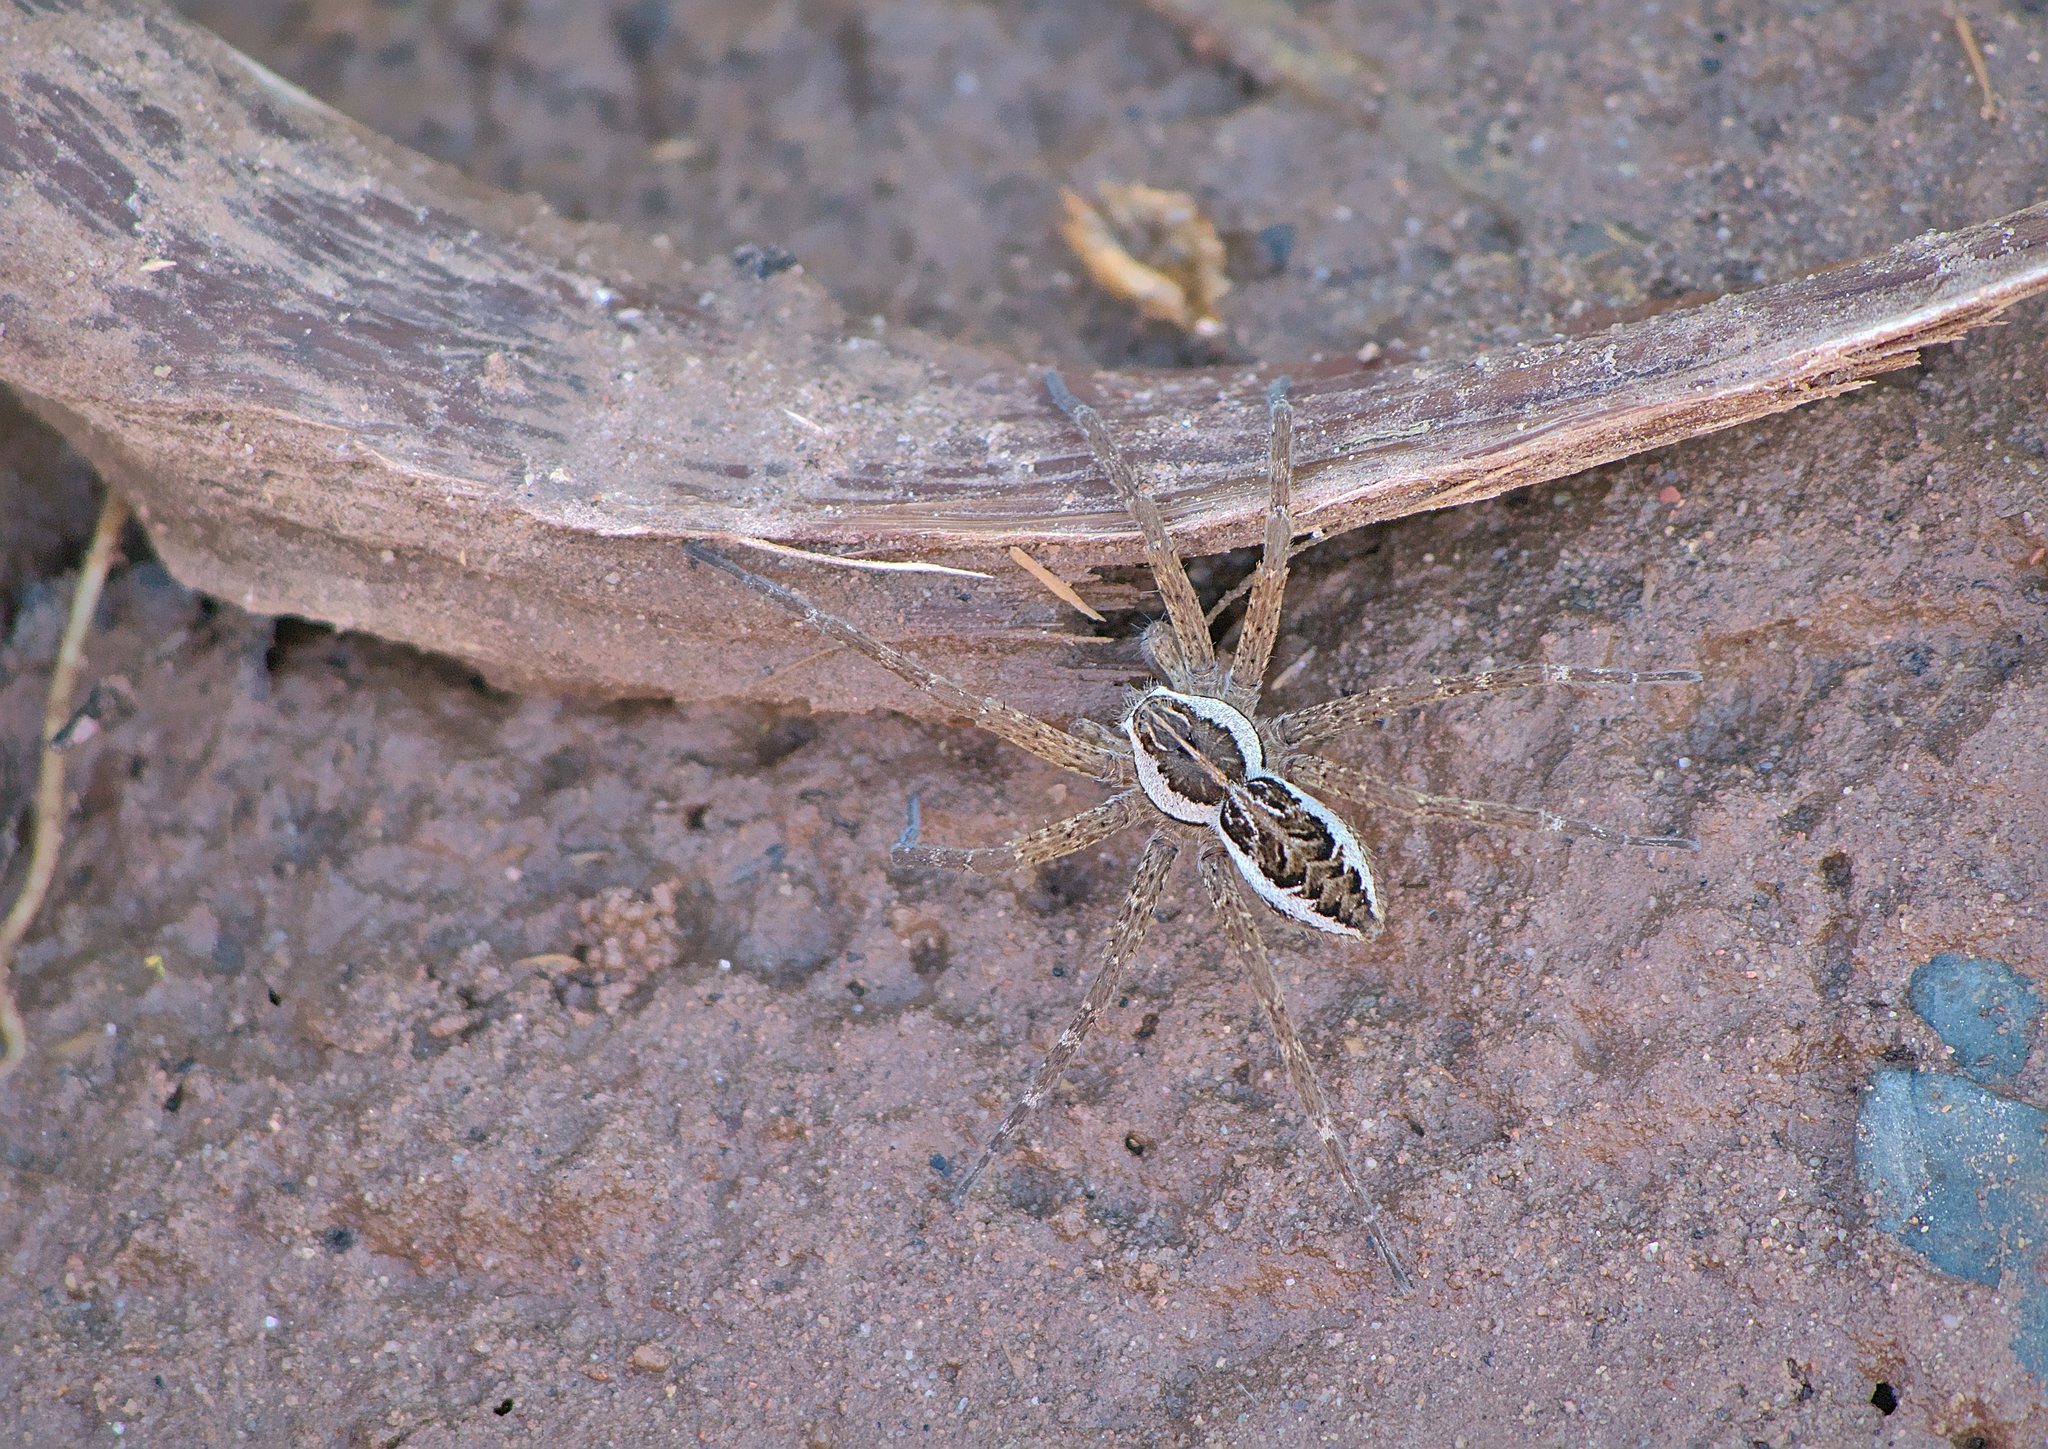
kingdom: Animalia
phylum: Arthropoda
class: Arachnida
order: Araneae
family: Pisauridae
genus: Dolomedes
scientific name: Dolomedes scriptus
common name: Striped fishing spider
